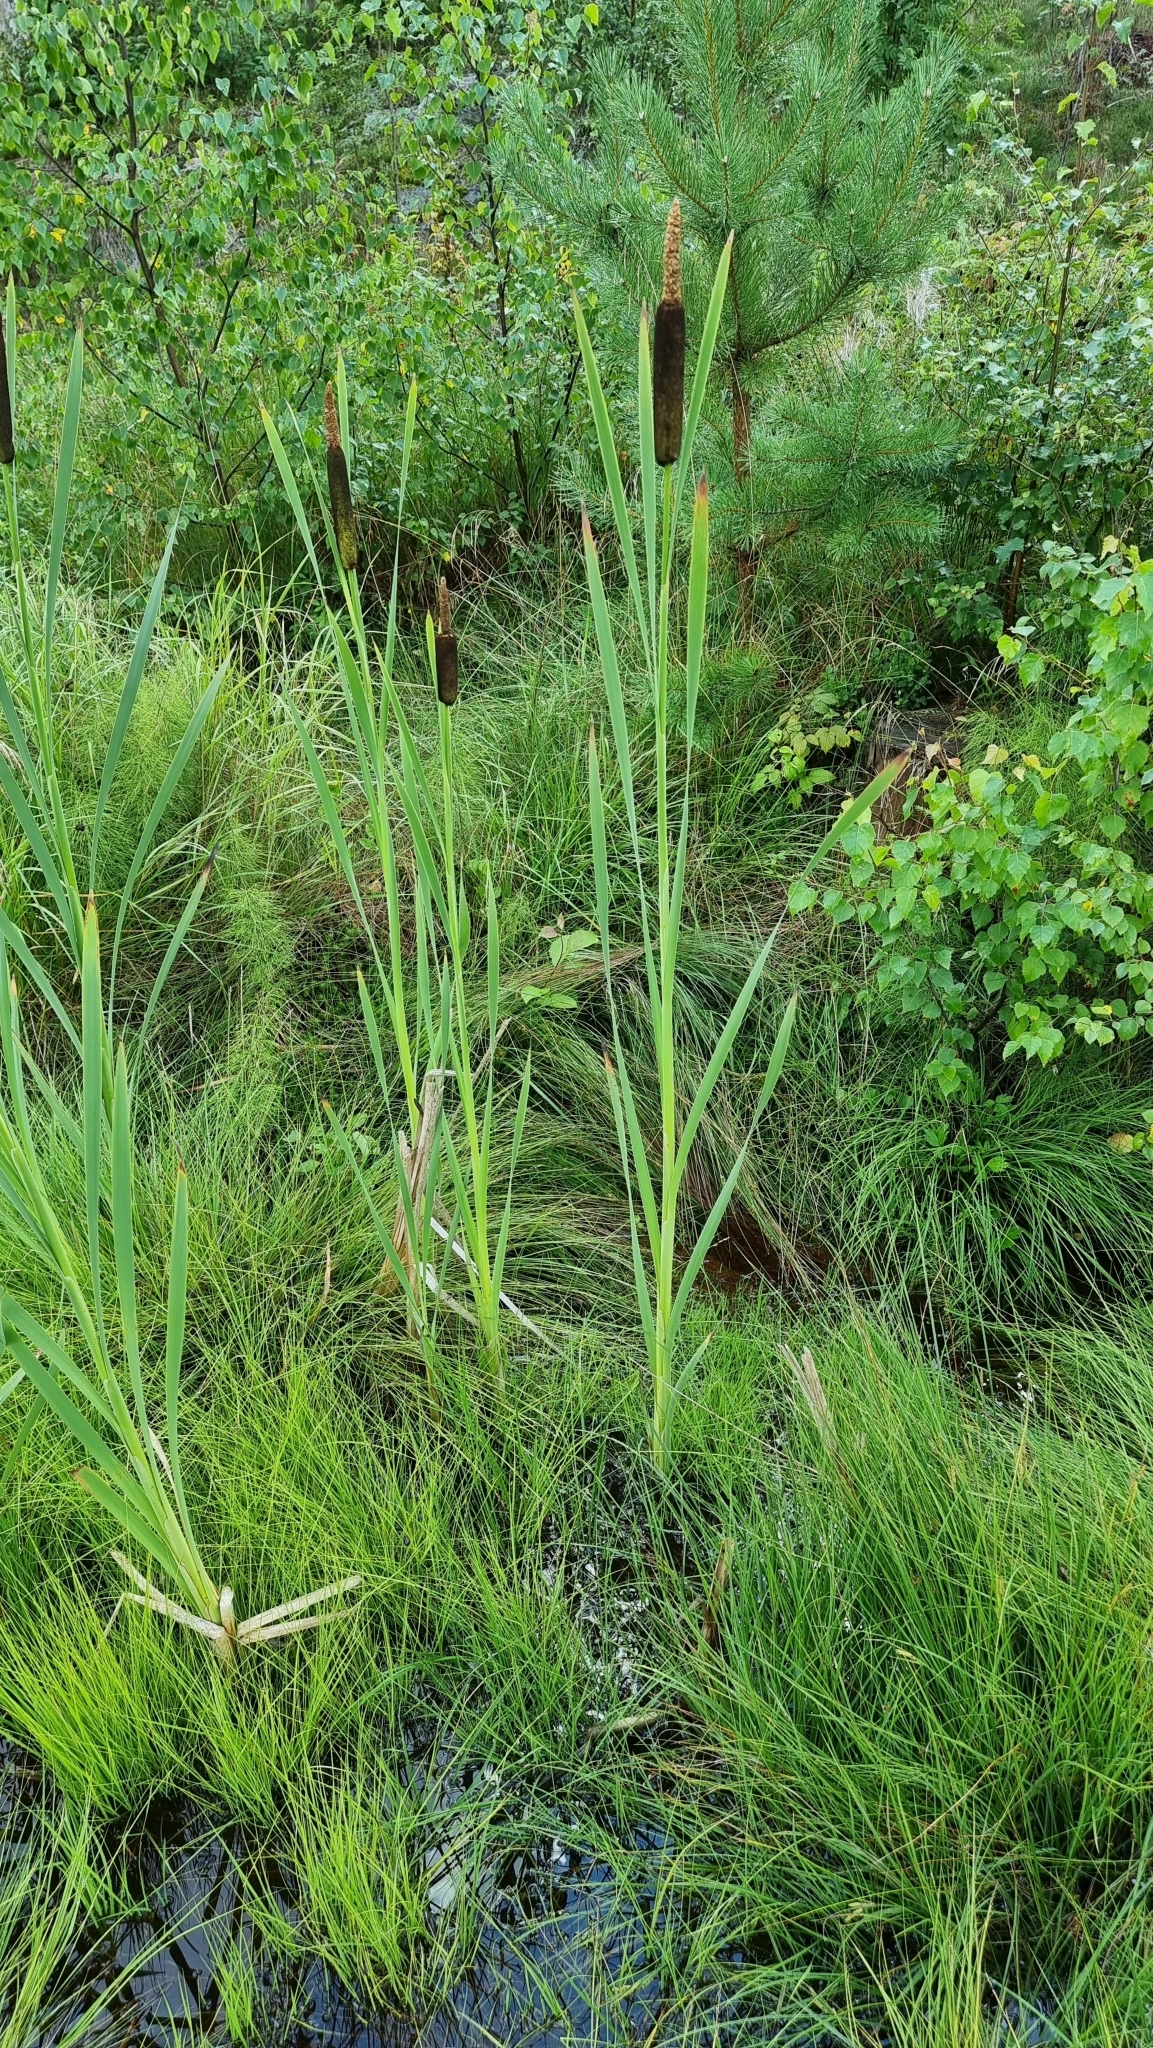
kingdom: Plantae
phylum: Tracheophyta
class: Liliopsida
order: Poales
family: Typhaceae
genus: Typha
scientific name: Typha latifolia
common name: Broadleaf cattail
